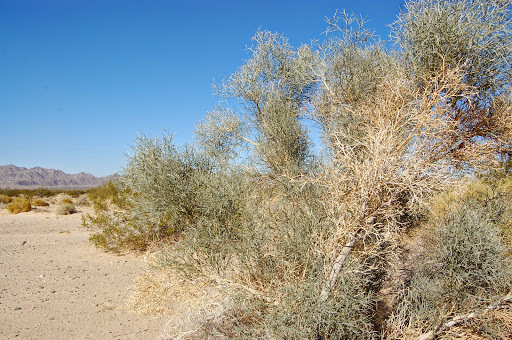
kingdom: Plantae
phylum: Tracheophyta
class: Magnoliopsida
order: Fabales
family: Fabaceae
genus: Psorothamnus
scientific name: Psorothamnus spinosus
